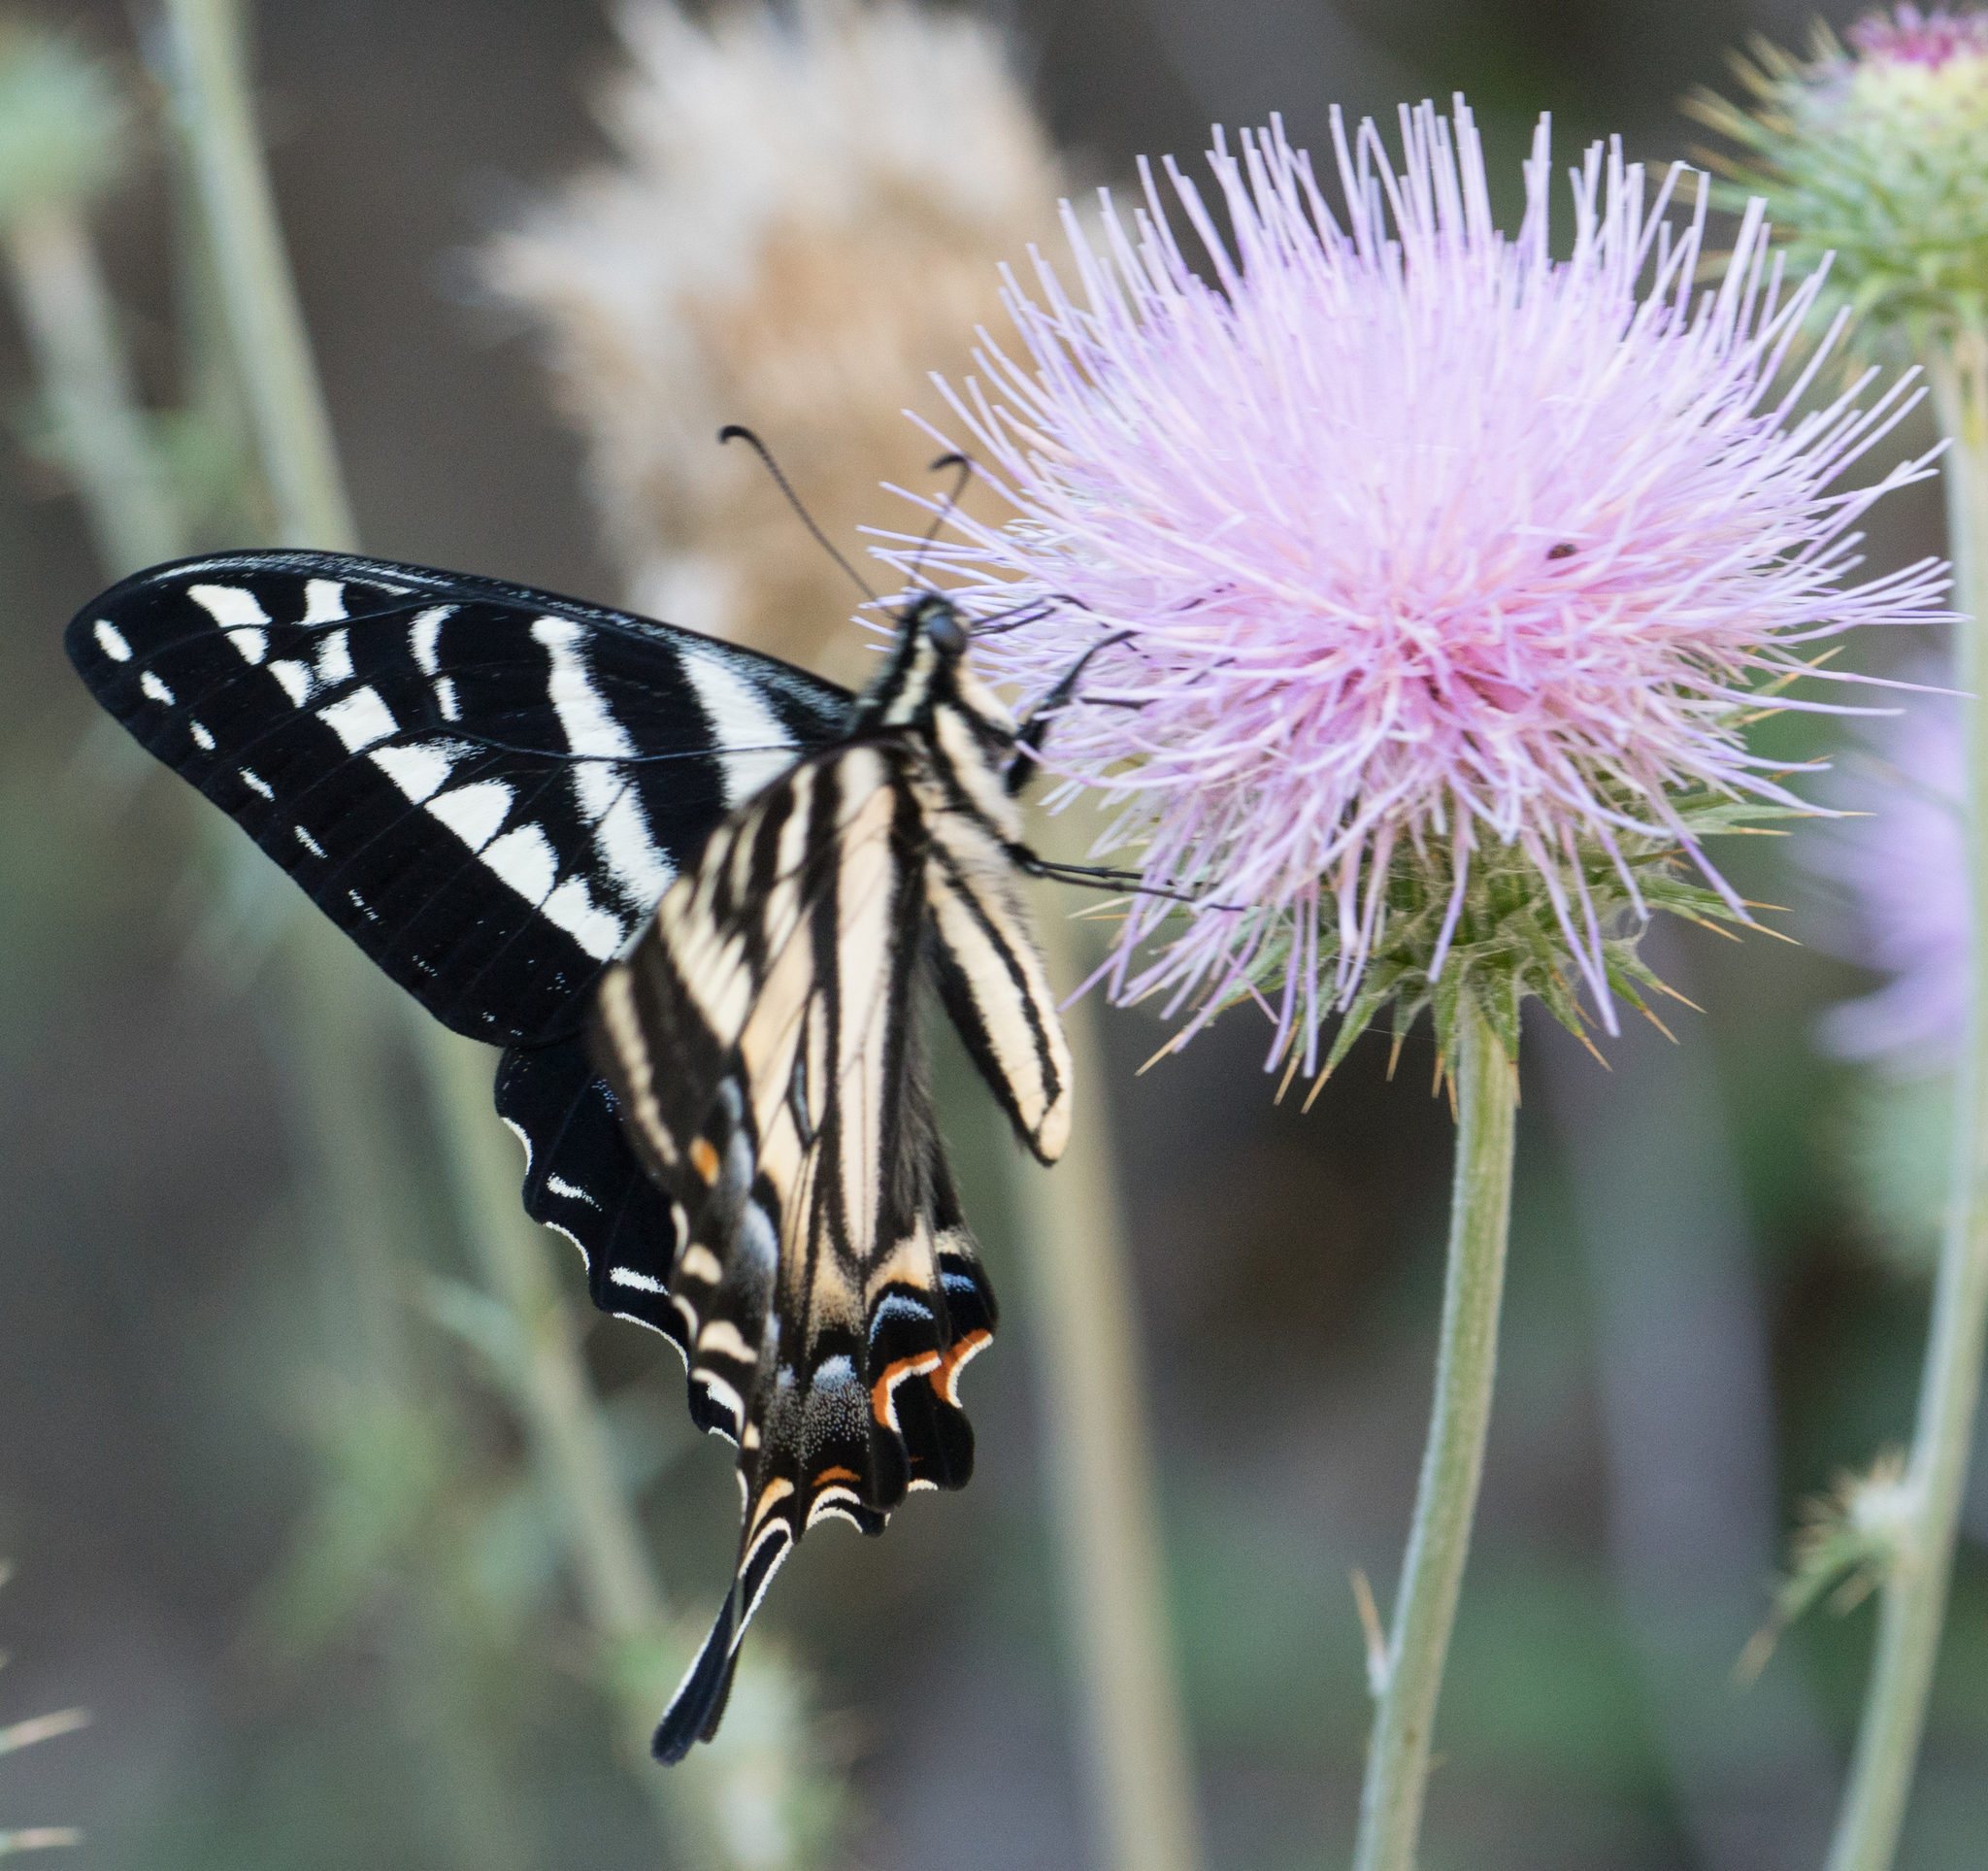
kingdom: Animalia
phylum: Arthropoda
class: Insecta
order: Lepidoptera
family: Papilionidae
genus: Papilio
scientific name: Papilio eurymedon
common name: Pale tiger swallowtail
